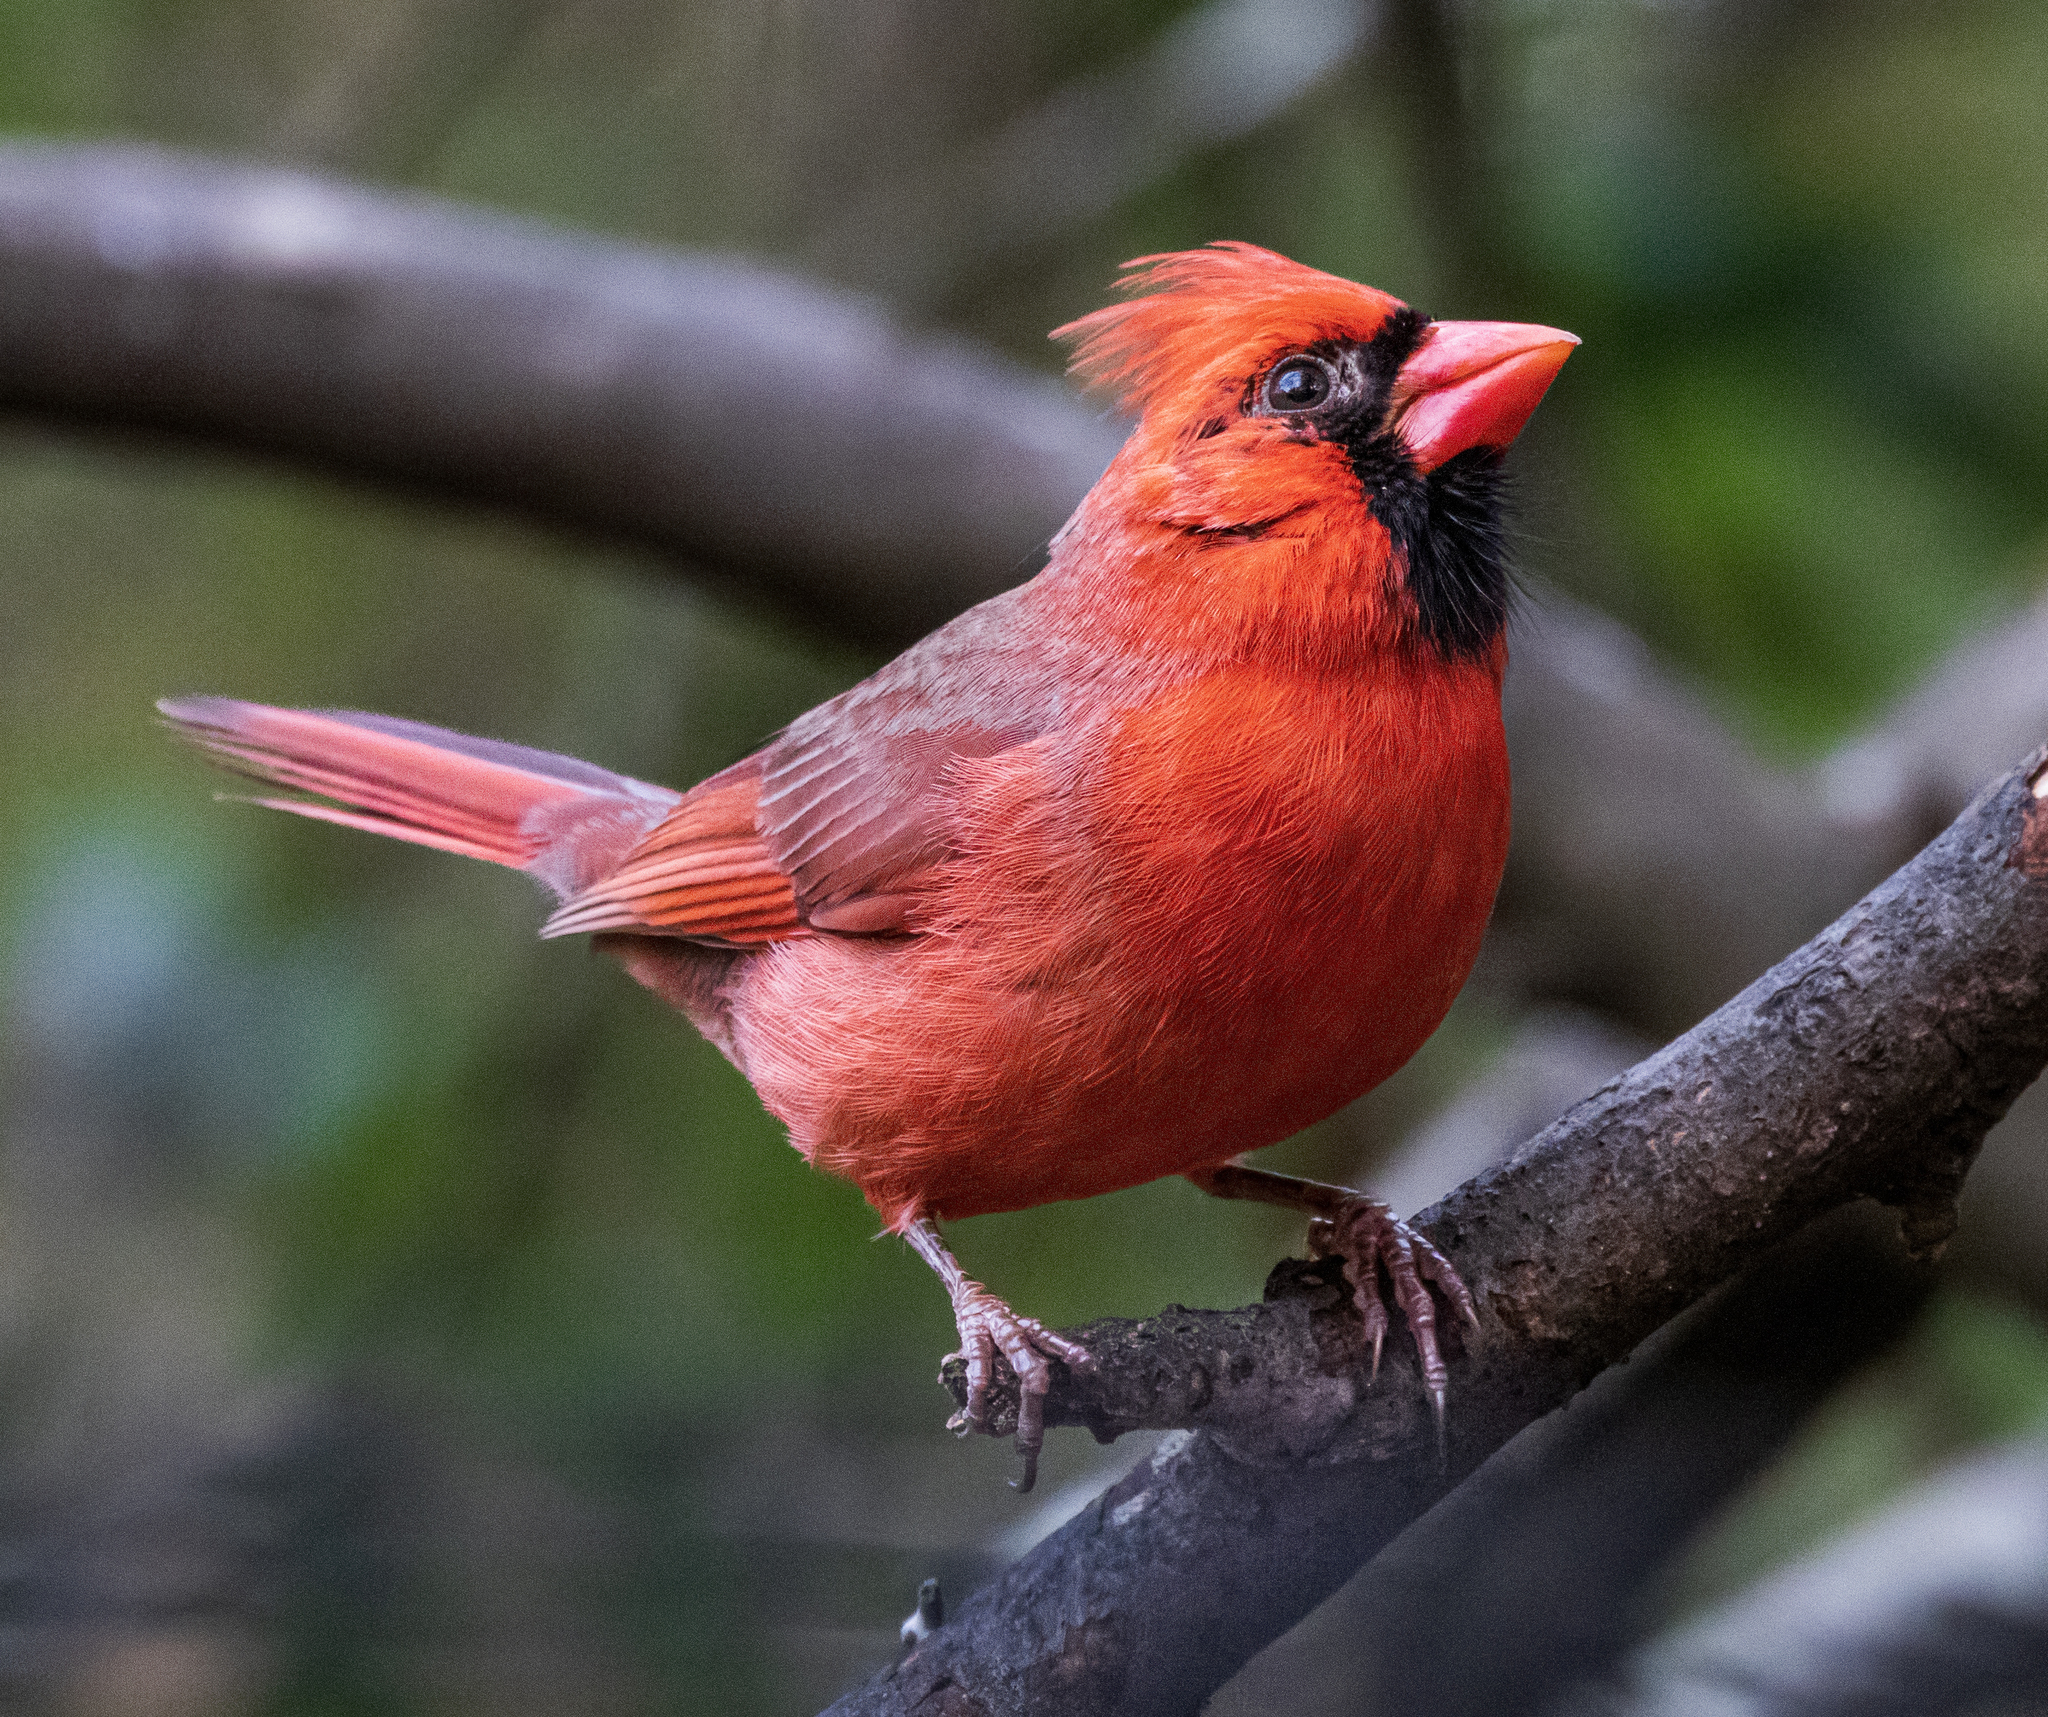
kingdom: Animalia
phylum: Chordata
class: Aves
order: Passeriformes
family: Cardinalidae
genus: Cardinalis
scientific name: Cardinalis cardinalis
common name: Northern cardinal
